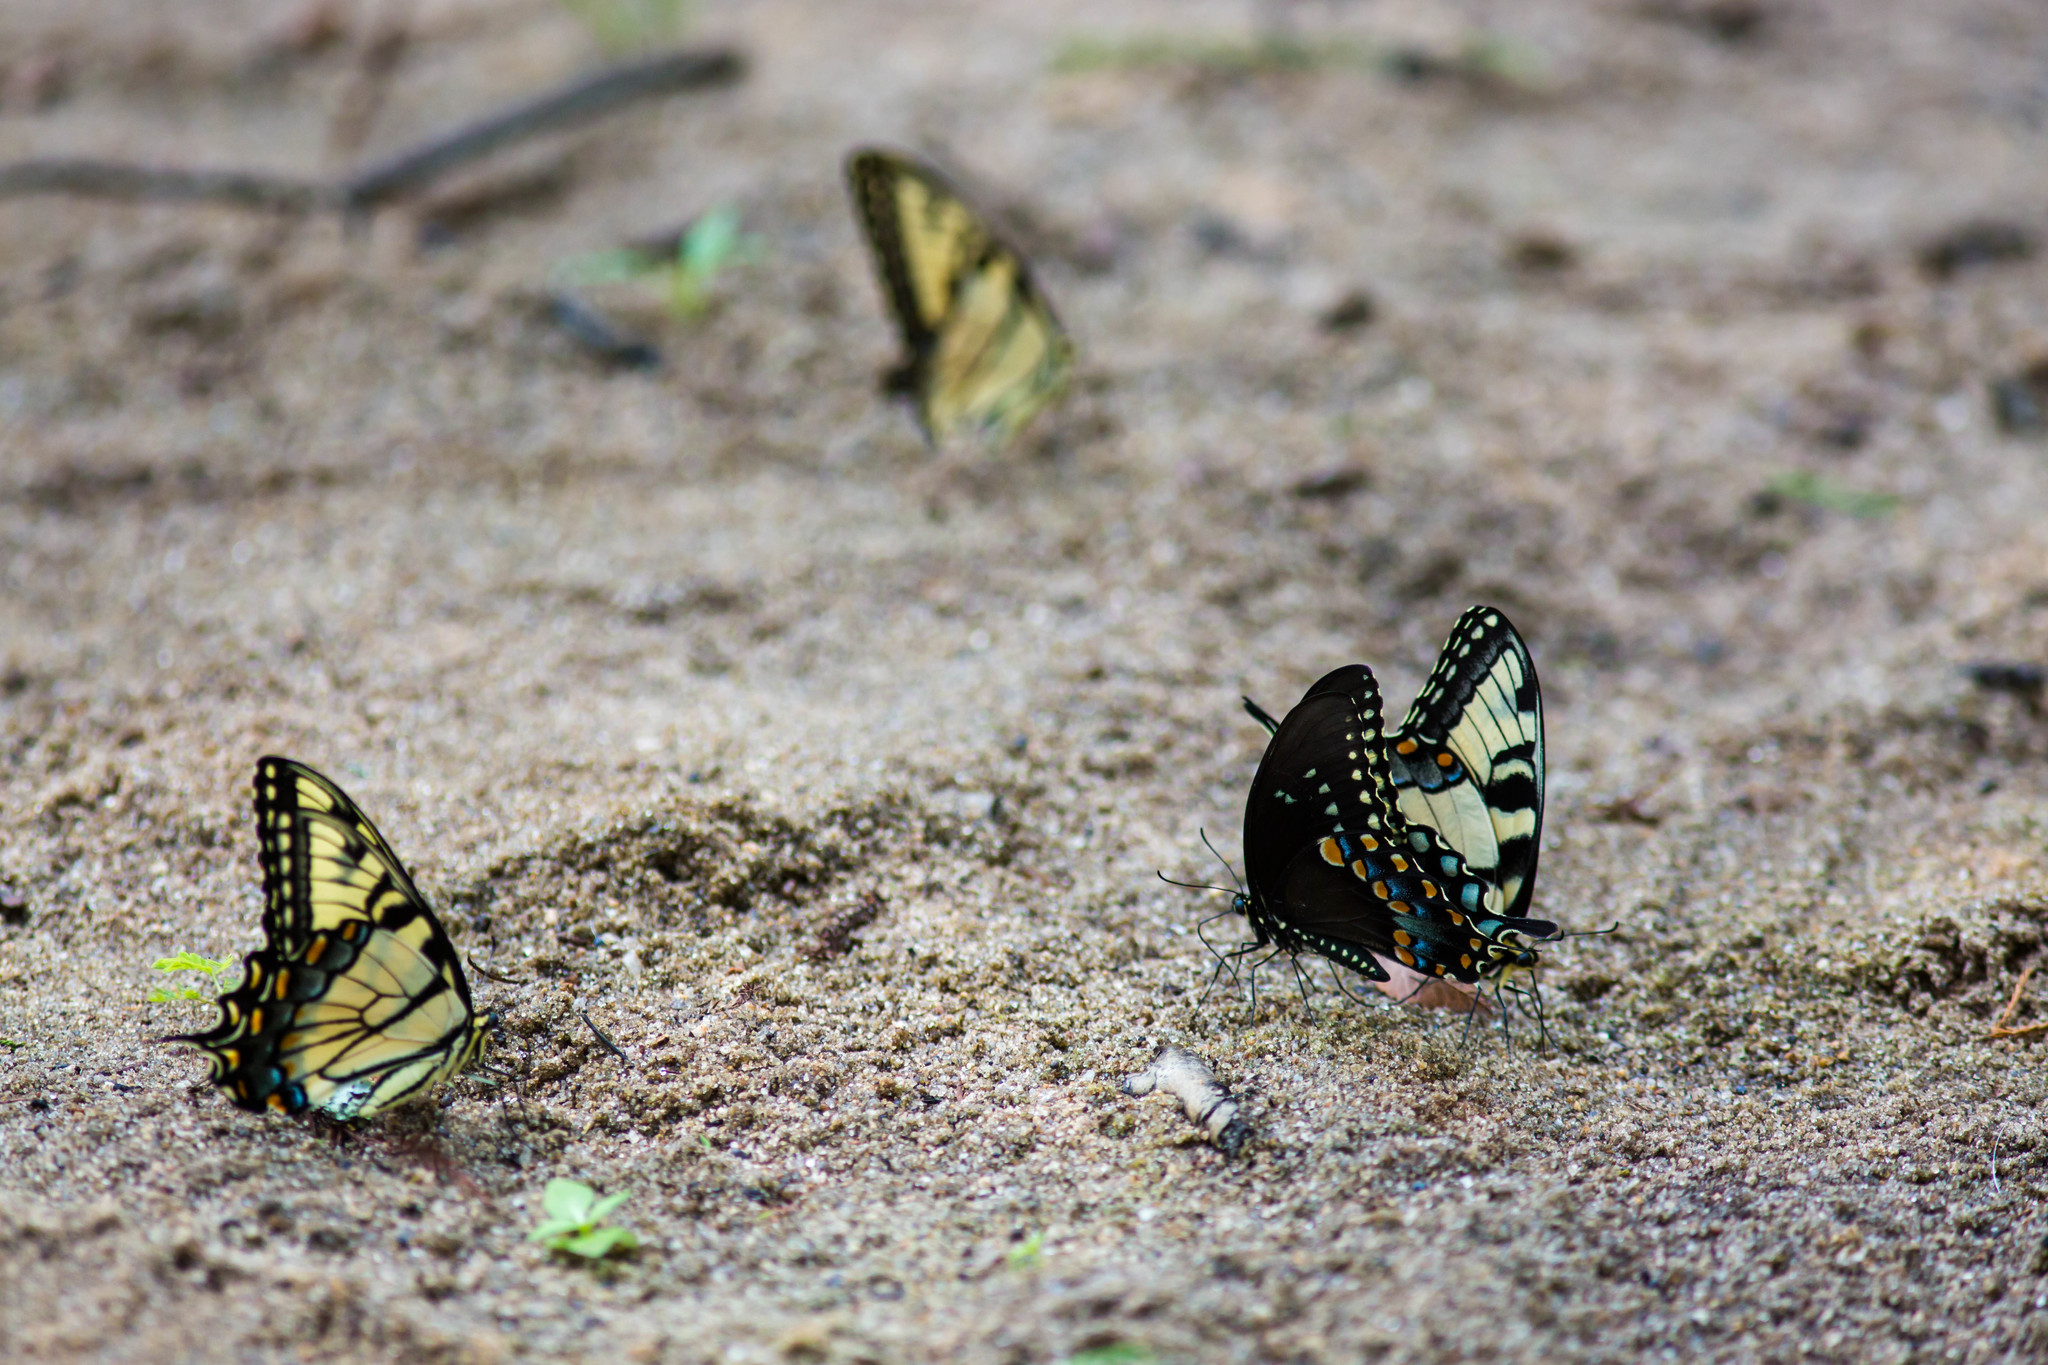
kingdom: Animalia
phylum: Arthropoda
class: Insecta
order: Lepidoptera
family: Papilionidae
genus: Papilio
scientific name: Papilio glaucus
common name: Tiger swallowtail
